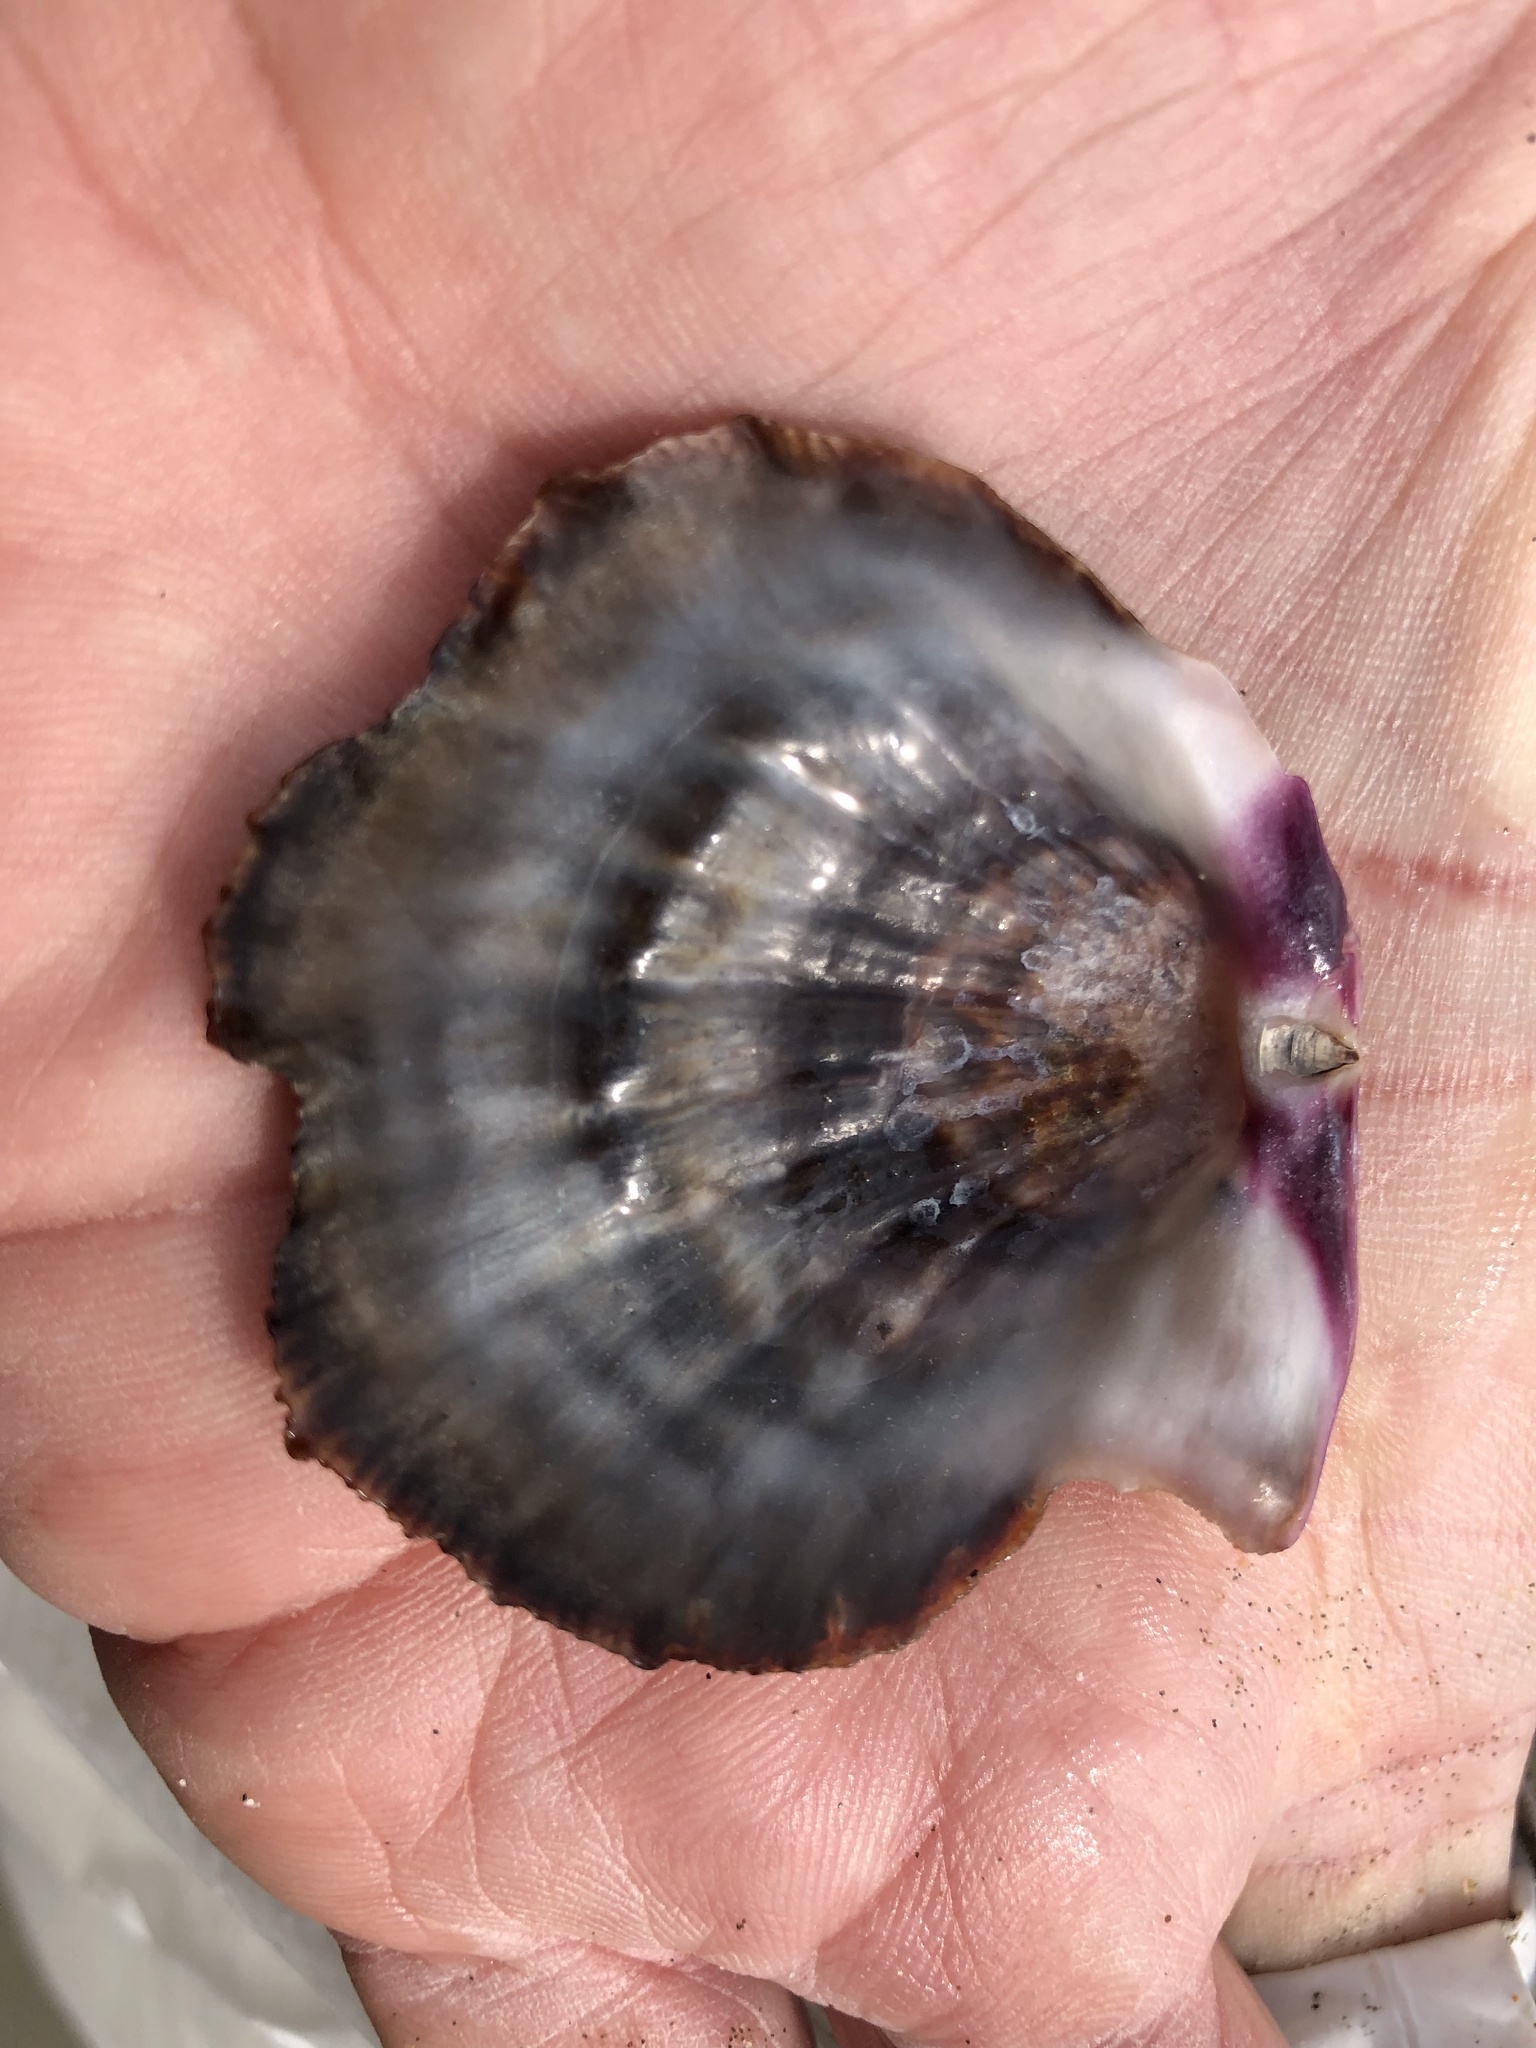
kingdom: Animalia
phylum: Mollusca
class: Bivalvia
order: Pectinida
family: Pectinidae
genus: Crassadoma
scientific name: Crassadoma gigantea
